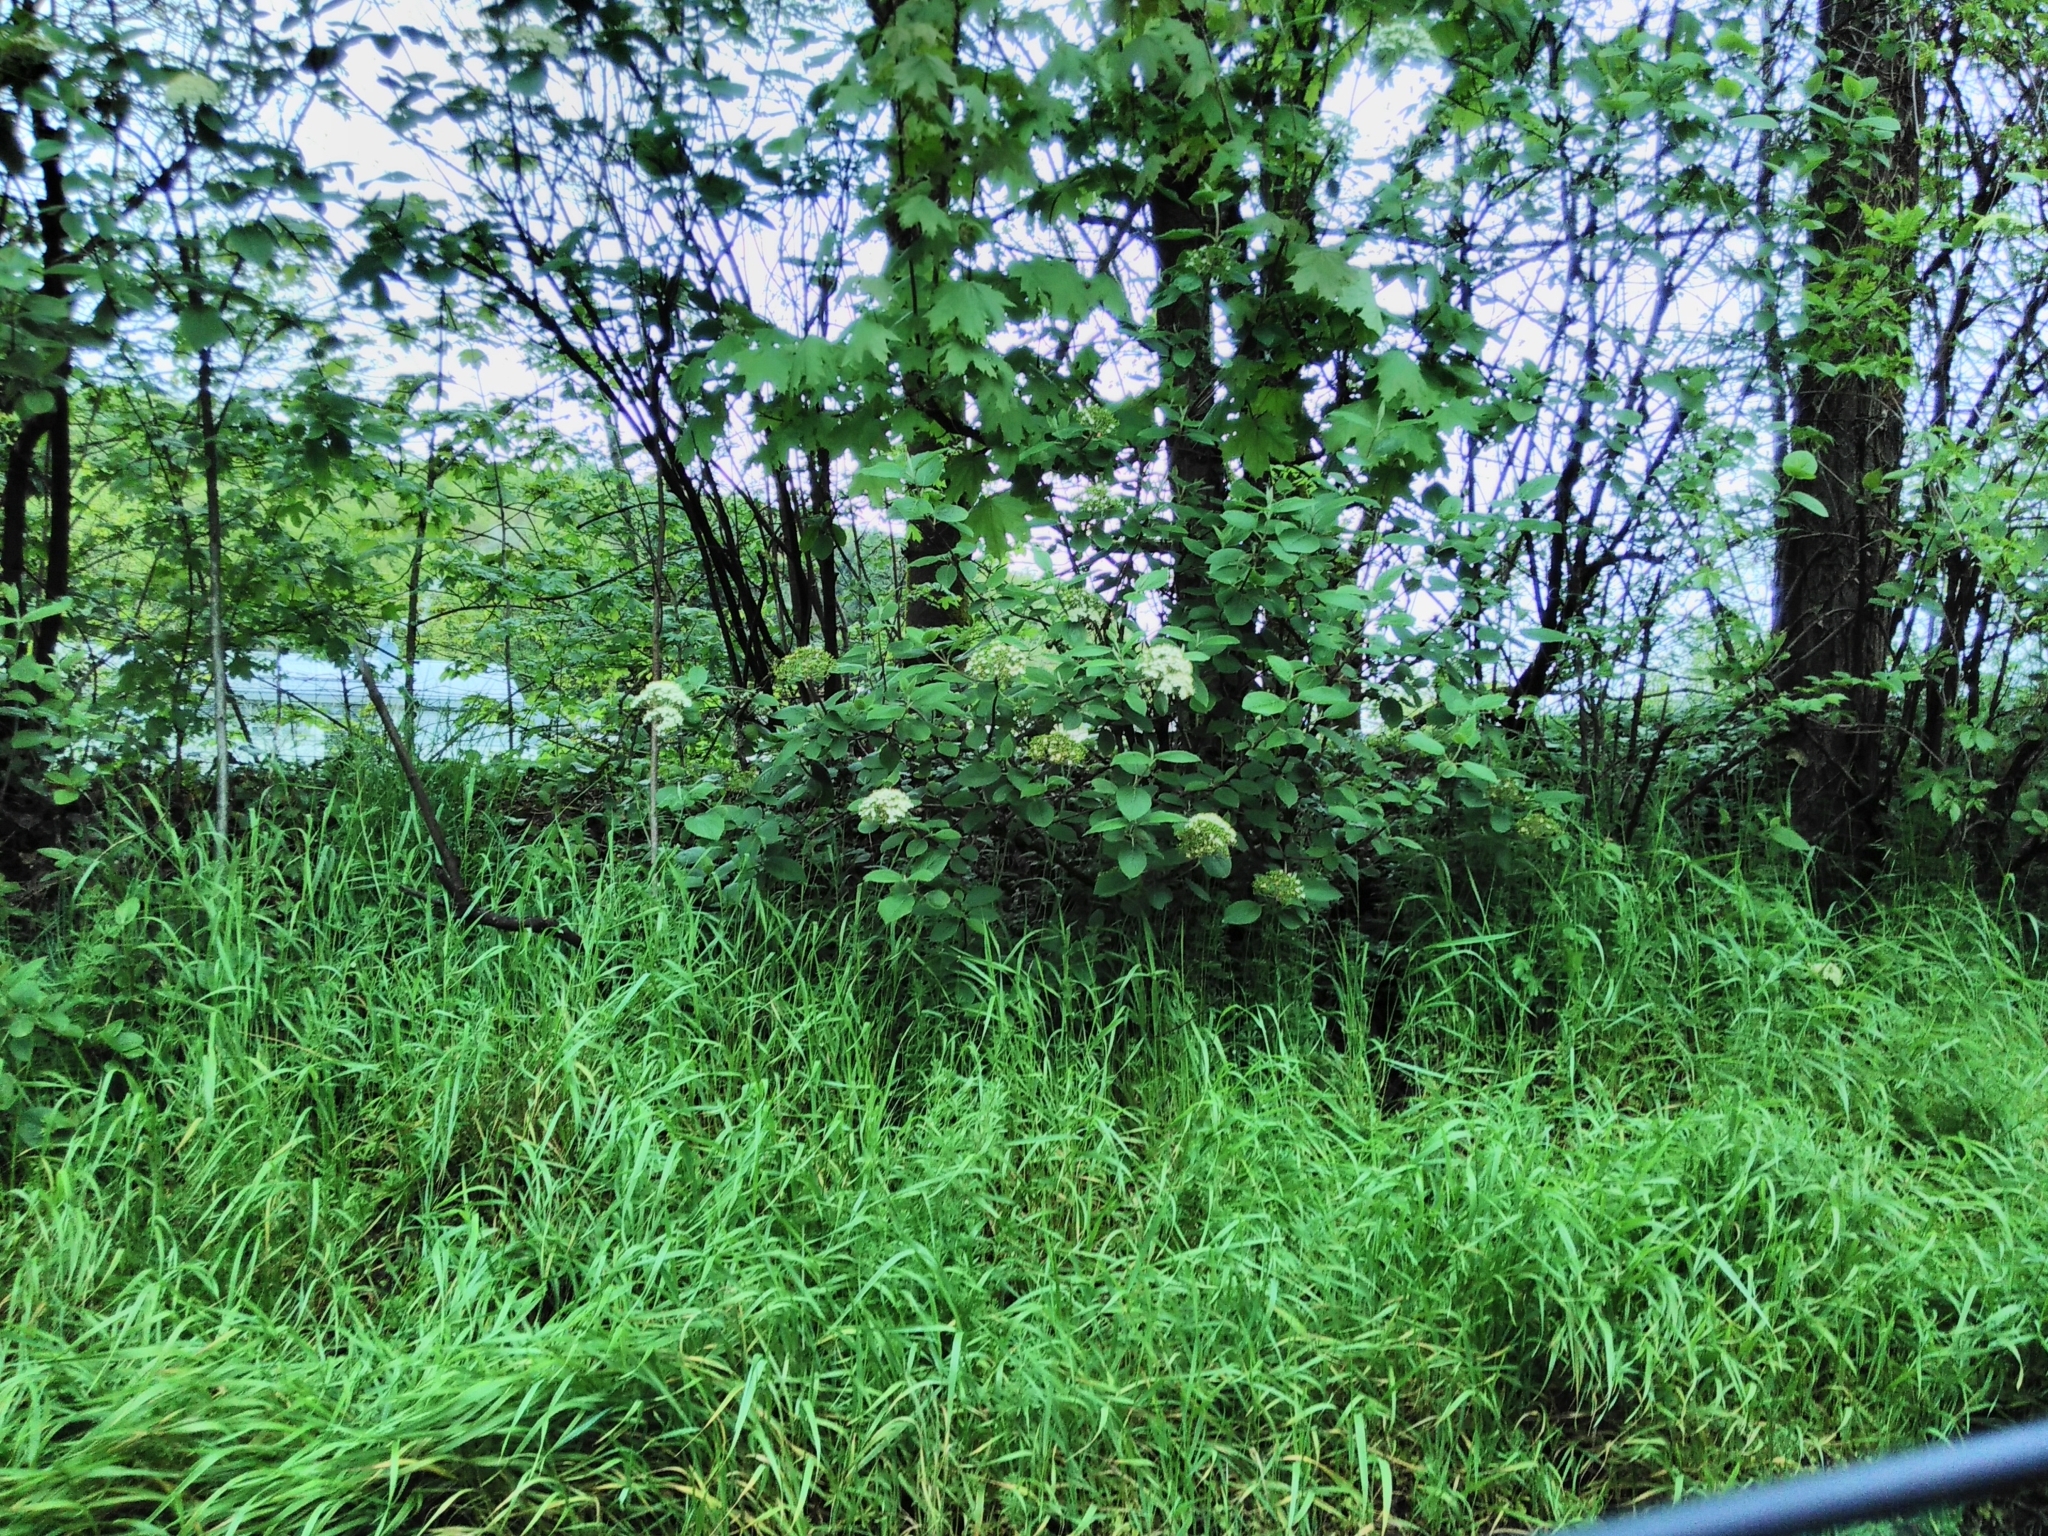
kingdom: Plantae
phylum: Tracheophyta
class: Magnoliopsida
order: Dipsacales
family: Viburnaceae
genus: Viburnum
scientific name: Viburnum lantana
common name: Wayfaring tree
